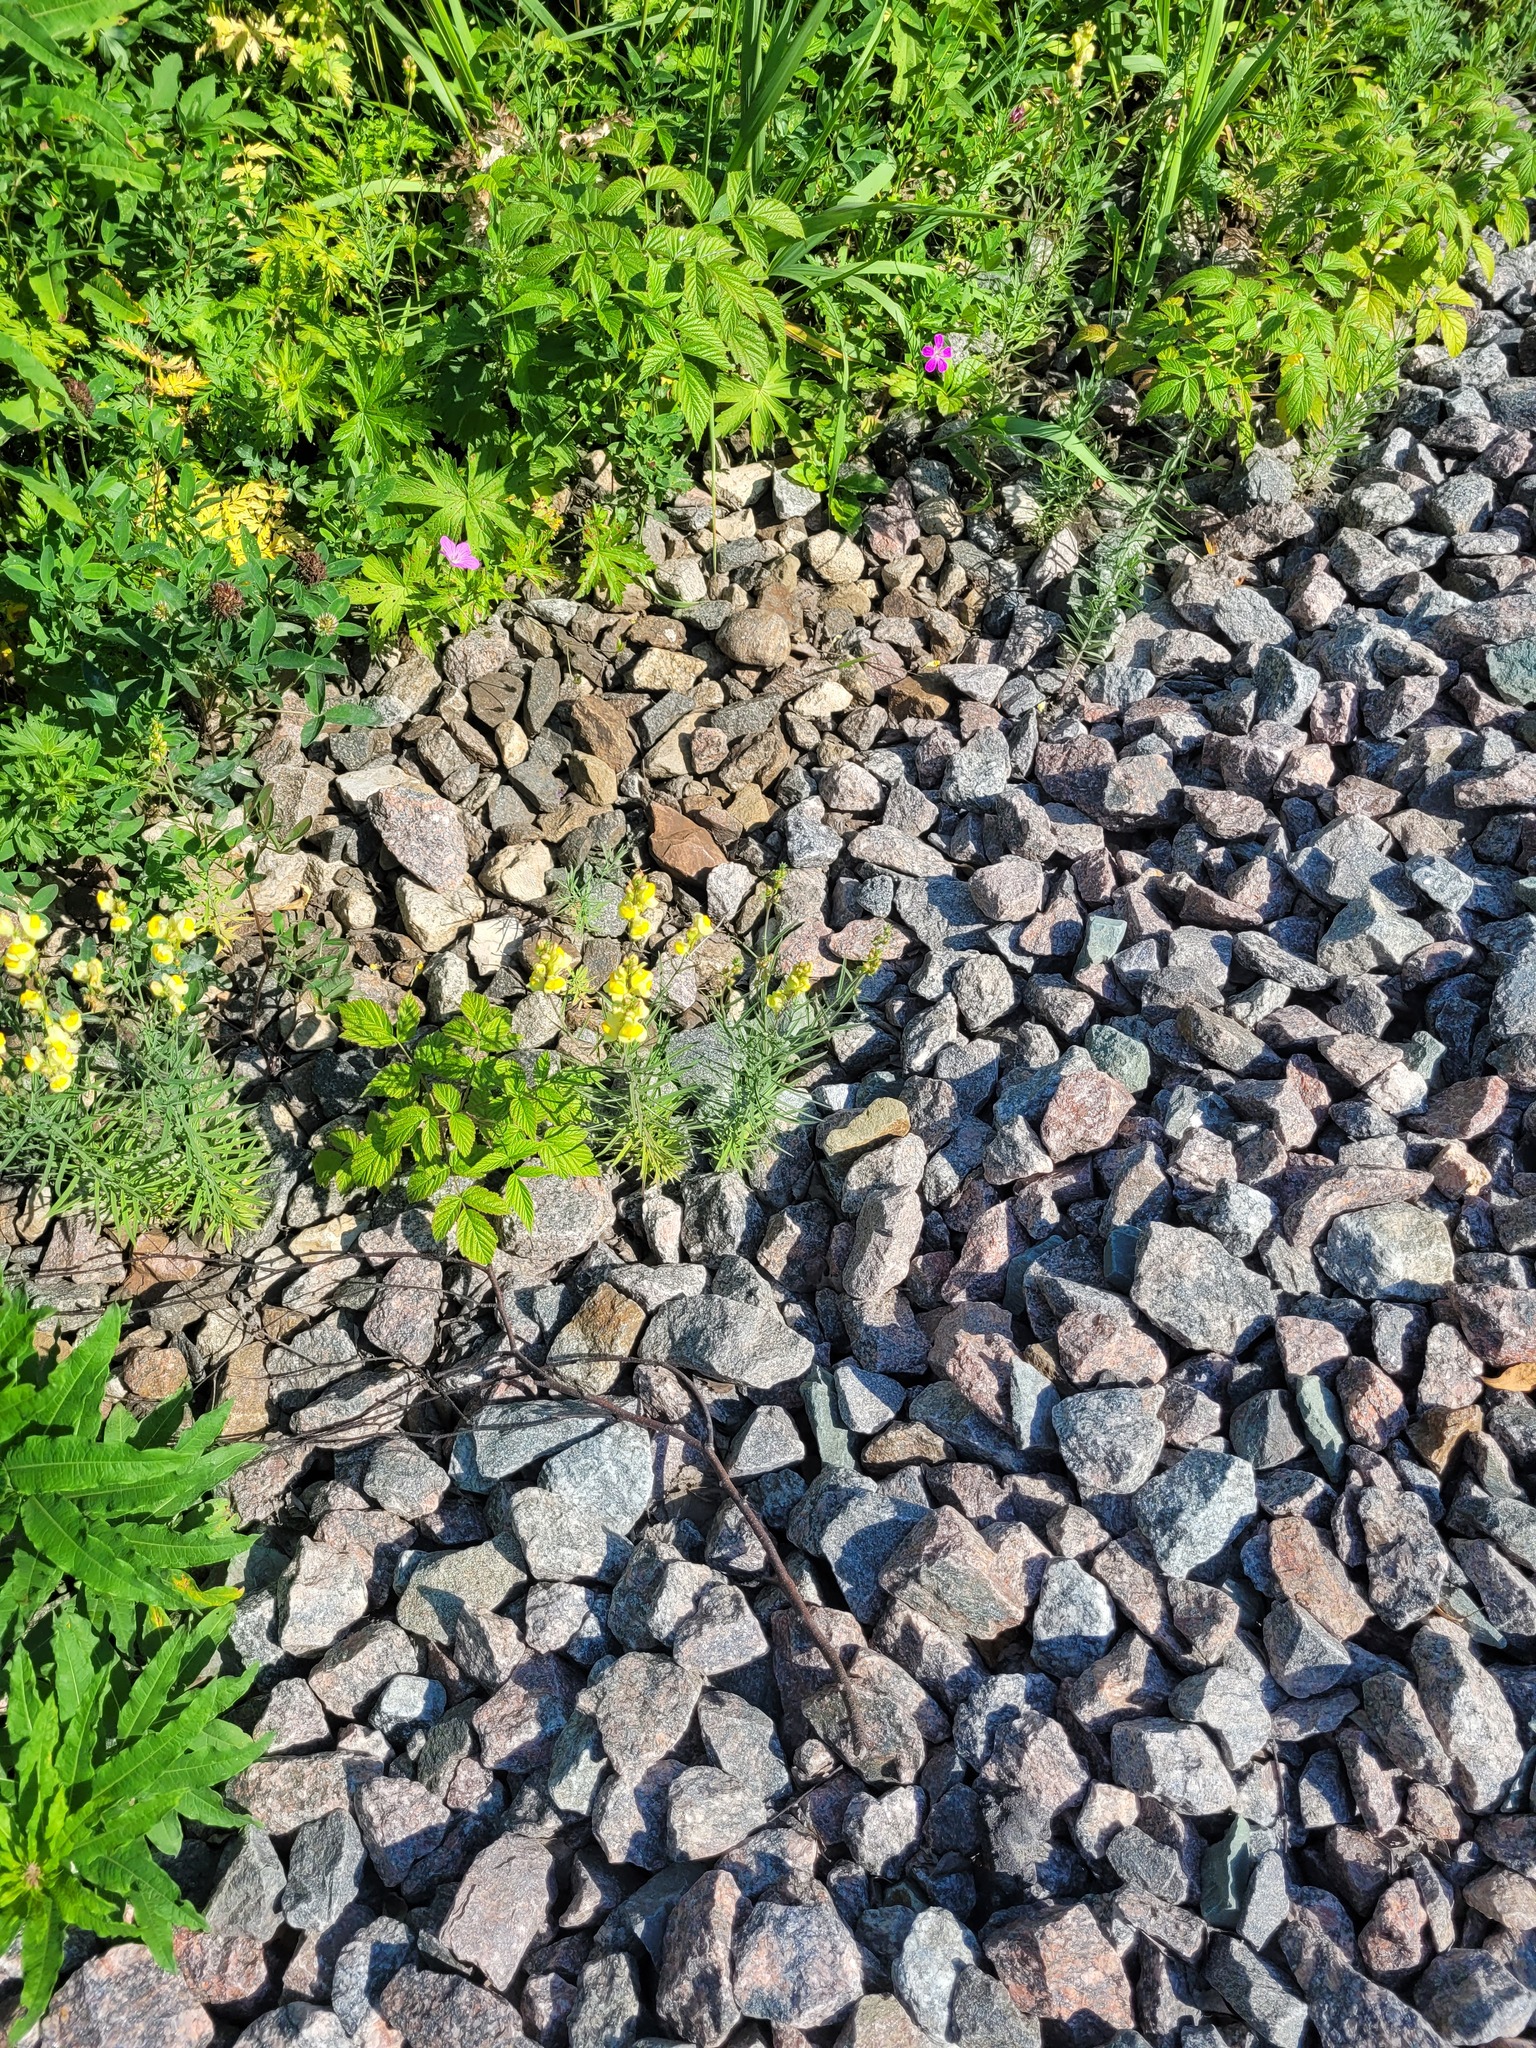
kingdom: Plantae
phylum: Tracheophyta
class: Magnoliopsida
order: Lamiales
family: Plantaginaceae
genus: Linaria
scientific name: Linaria vulgaris
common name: Butter and eggs
